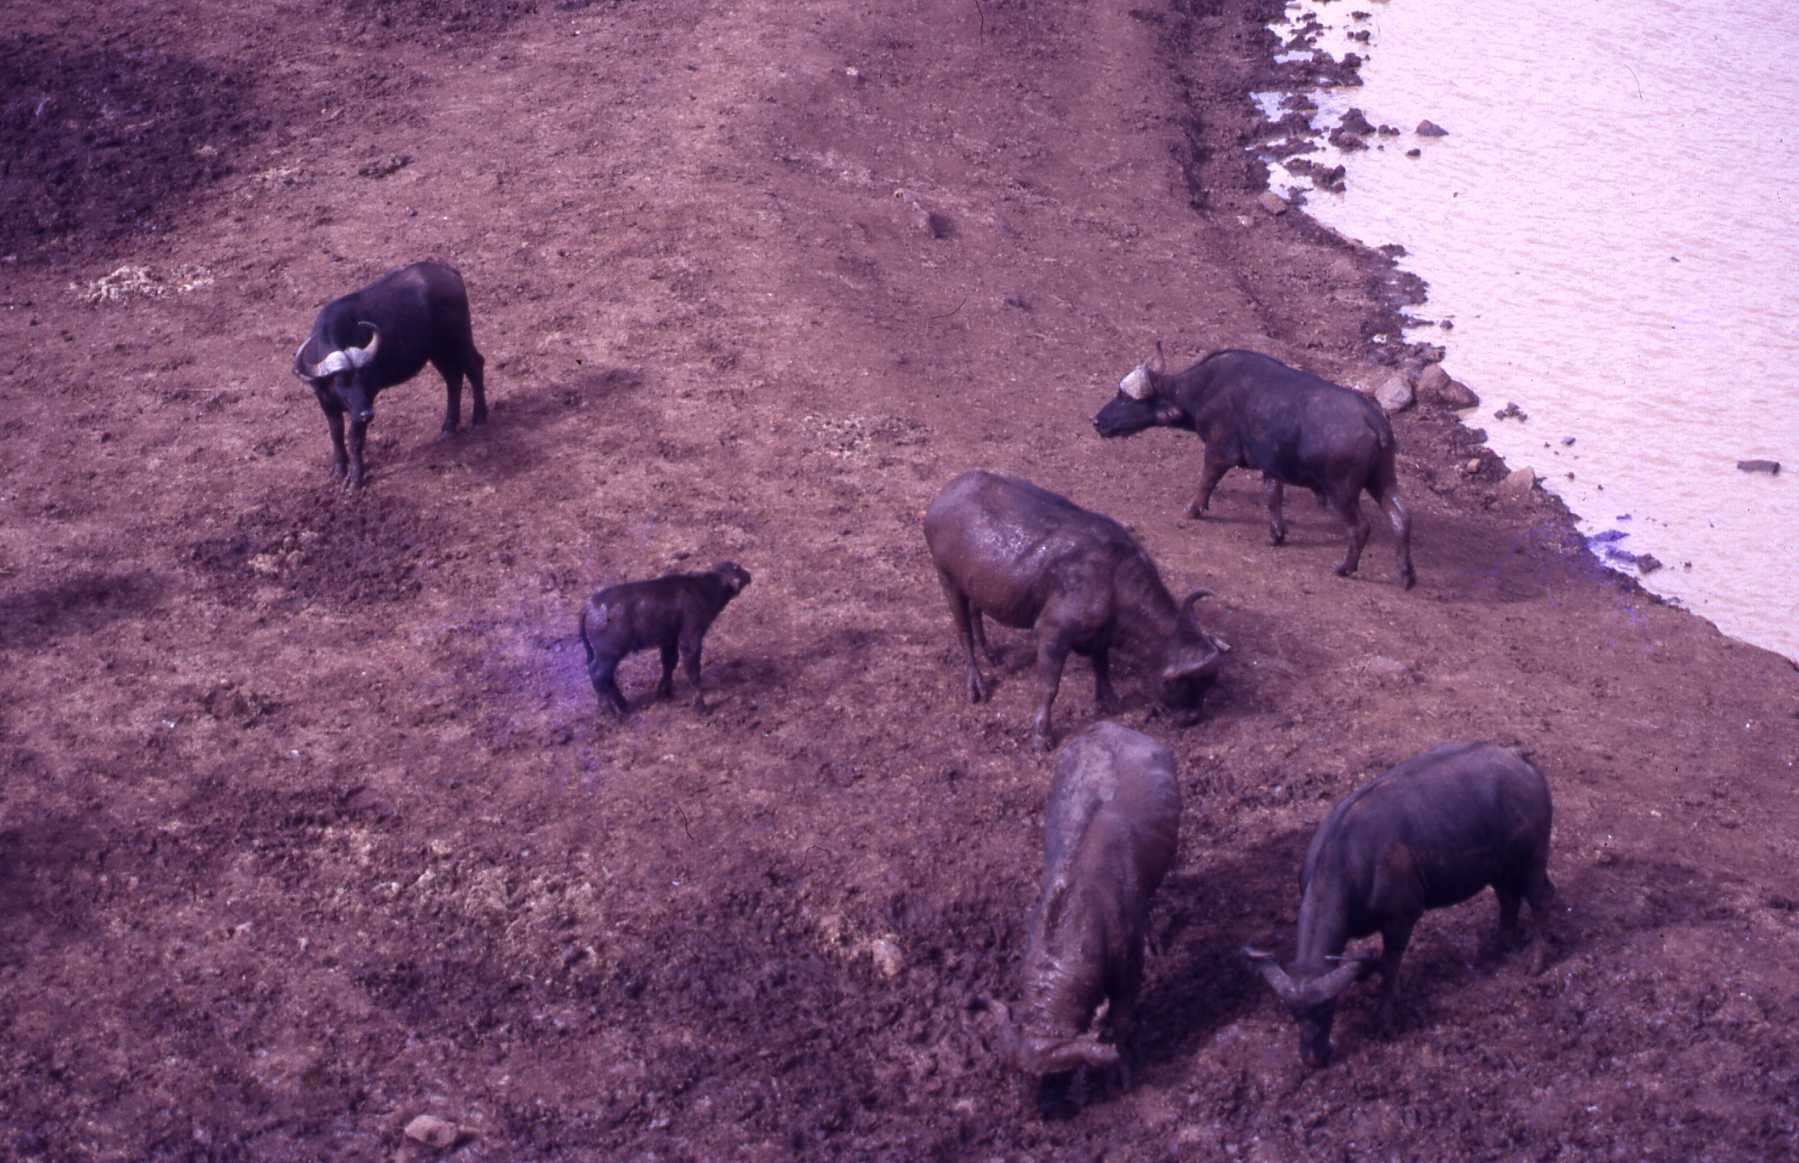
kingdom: Animalia
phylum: Chordata
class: Mammalia
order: Artiodactyla
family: Bovidae
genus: Syncerus
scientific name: Syncerus caffer
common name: African buffalo
